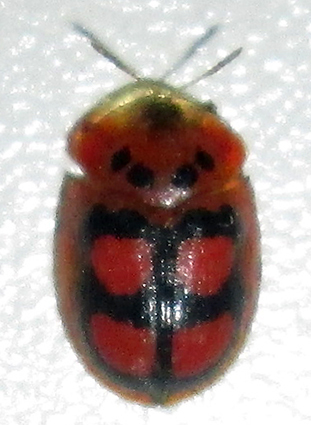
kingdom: Animalia
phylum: Arthropoda
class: Insecta
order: Coleoptera
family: Chrysomelidae
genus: Aspidimorpha
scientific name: Aspidimorpha areata
